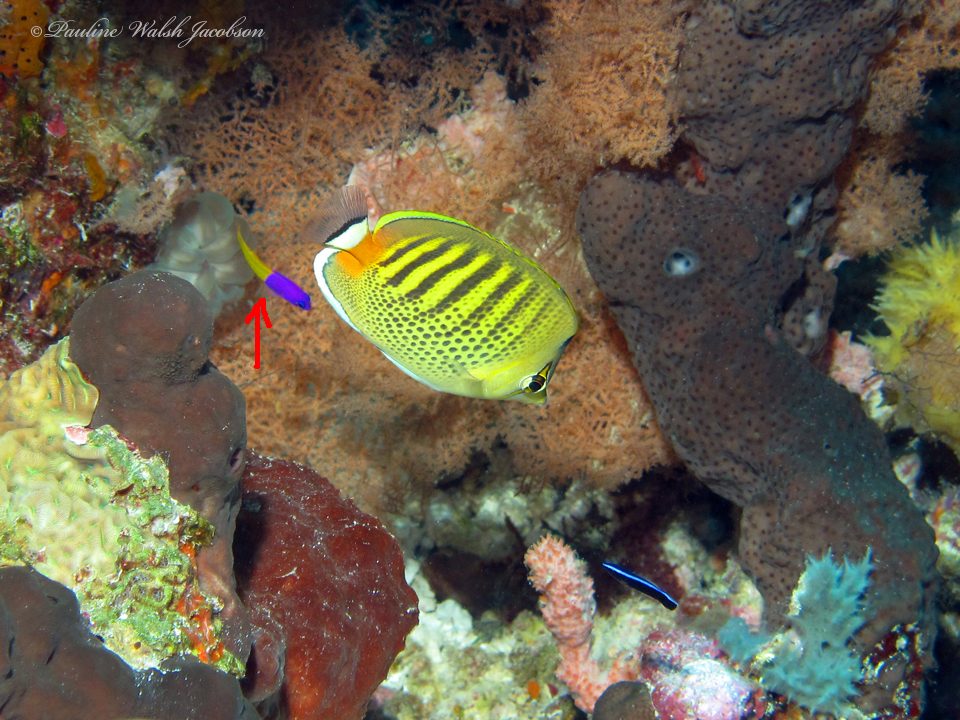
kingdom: Animalia
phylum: Chordata
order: Perciformes
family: Pseudochromidae
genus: Pictichromis
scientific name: Pictichromis paccagnellae
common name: Royal dottyback
